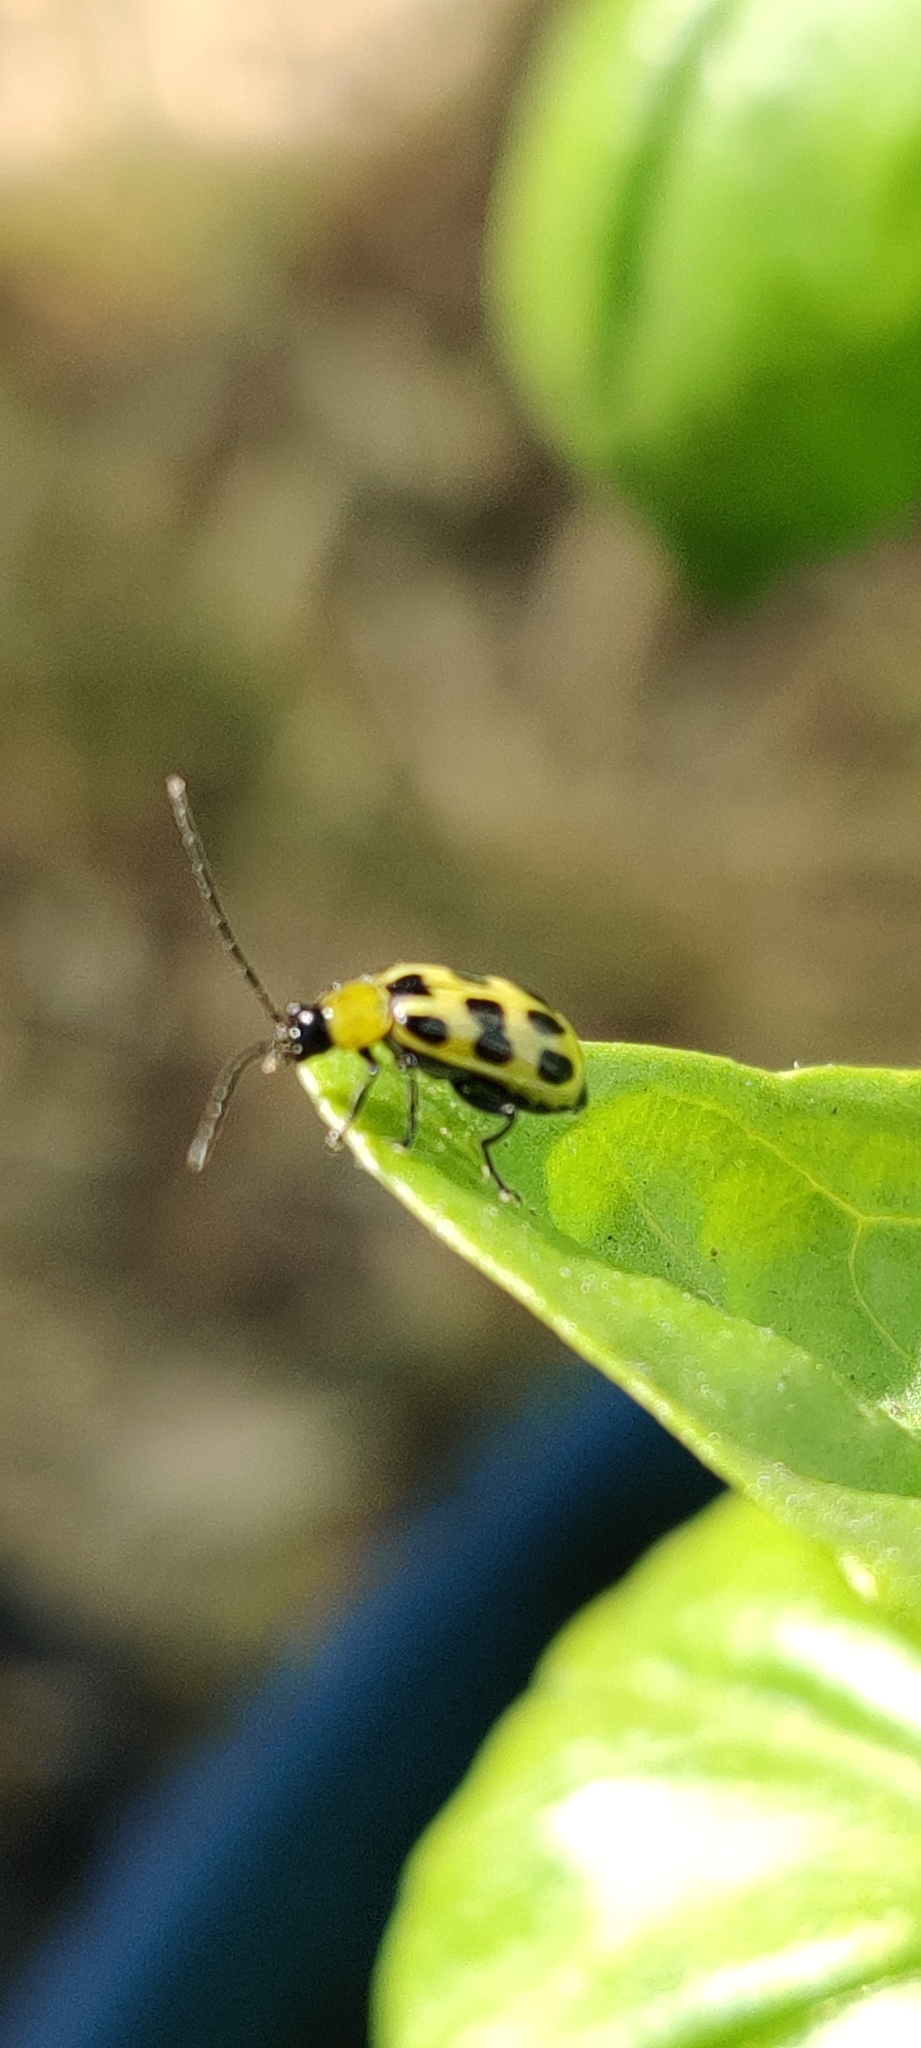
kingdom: Animalia
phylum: Arthropoda
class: Insecta
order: Coleoptera
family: Chrysomelidae
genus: Diabrotica
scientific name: Diabrotica undecimpunctata
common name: Spotted cucumber beetle
